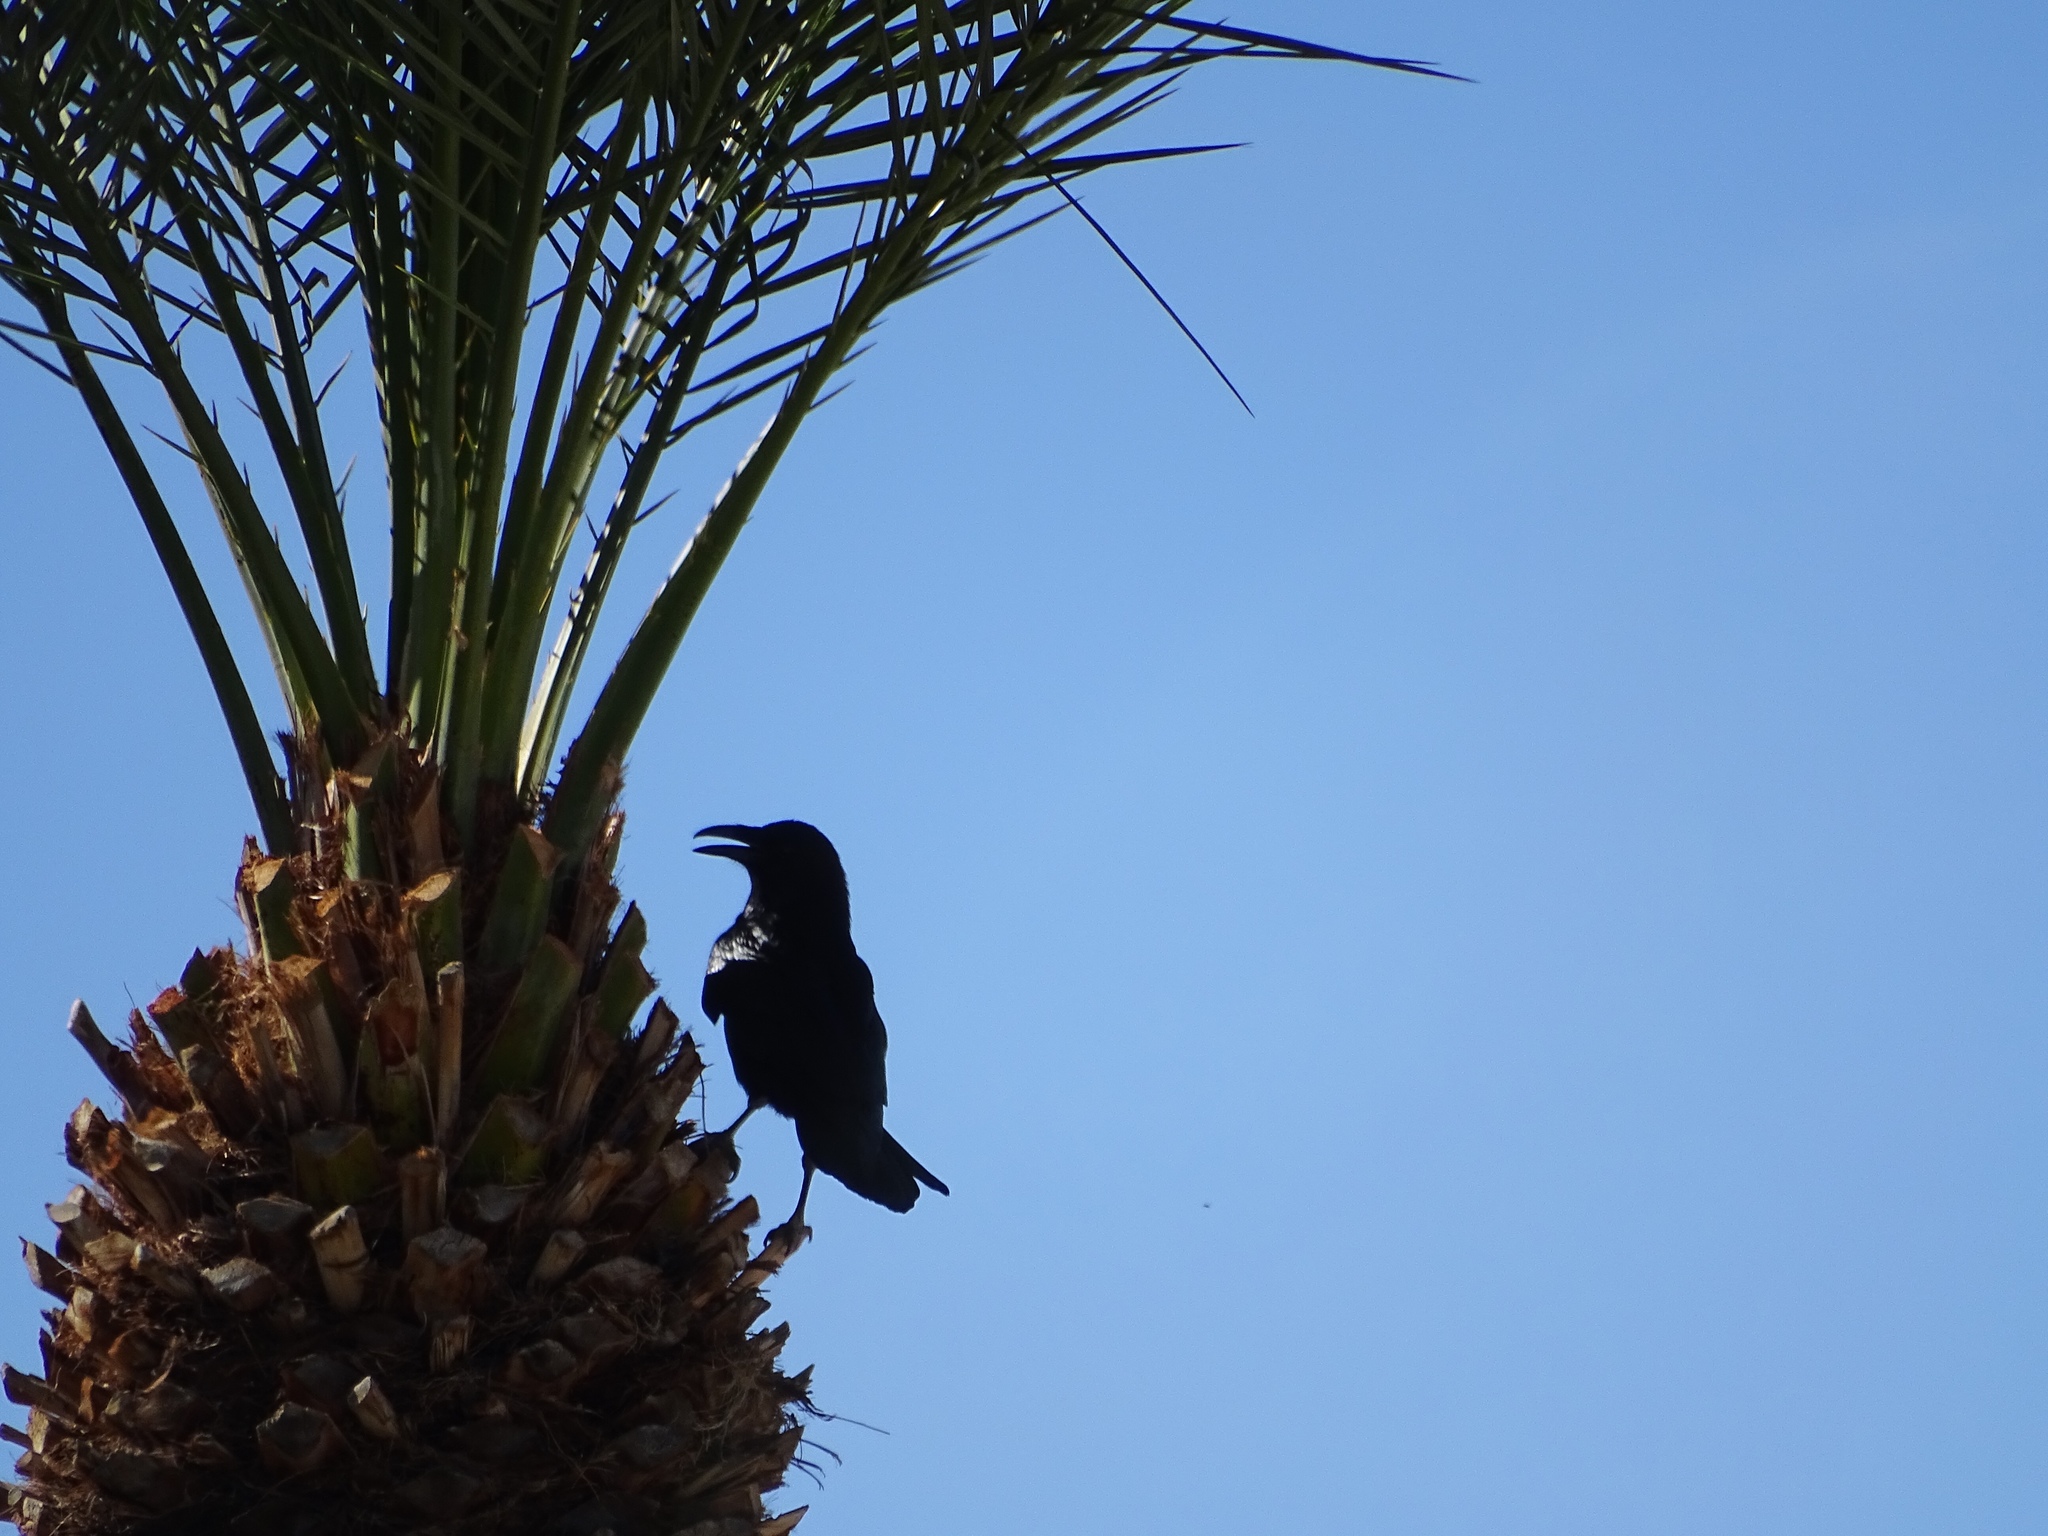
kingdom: Animalia
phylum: Chordata
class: Aves
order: Passeriformes
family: Corvidae
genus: Corvus
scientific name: Corvus corax
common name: Common raven
